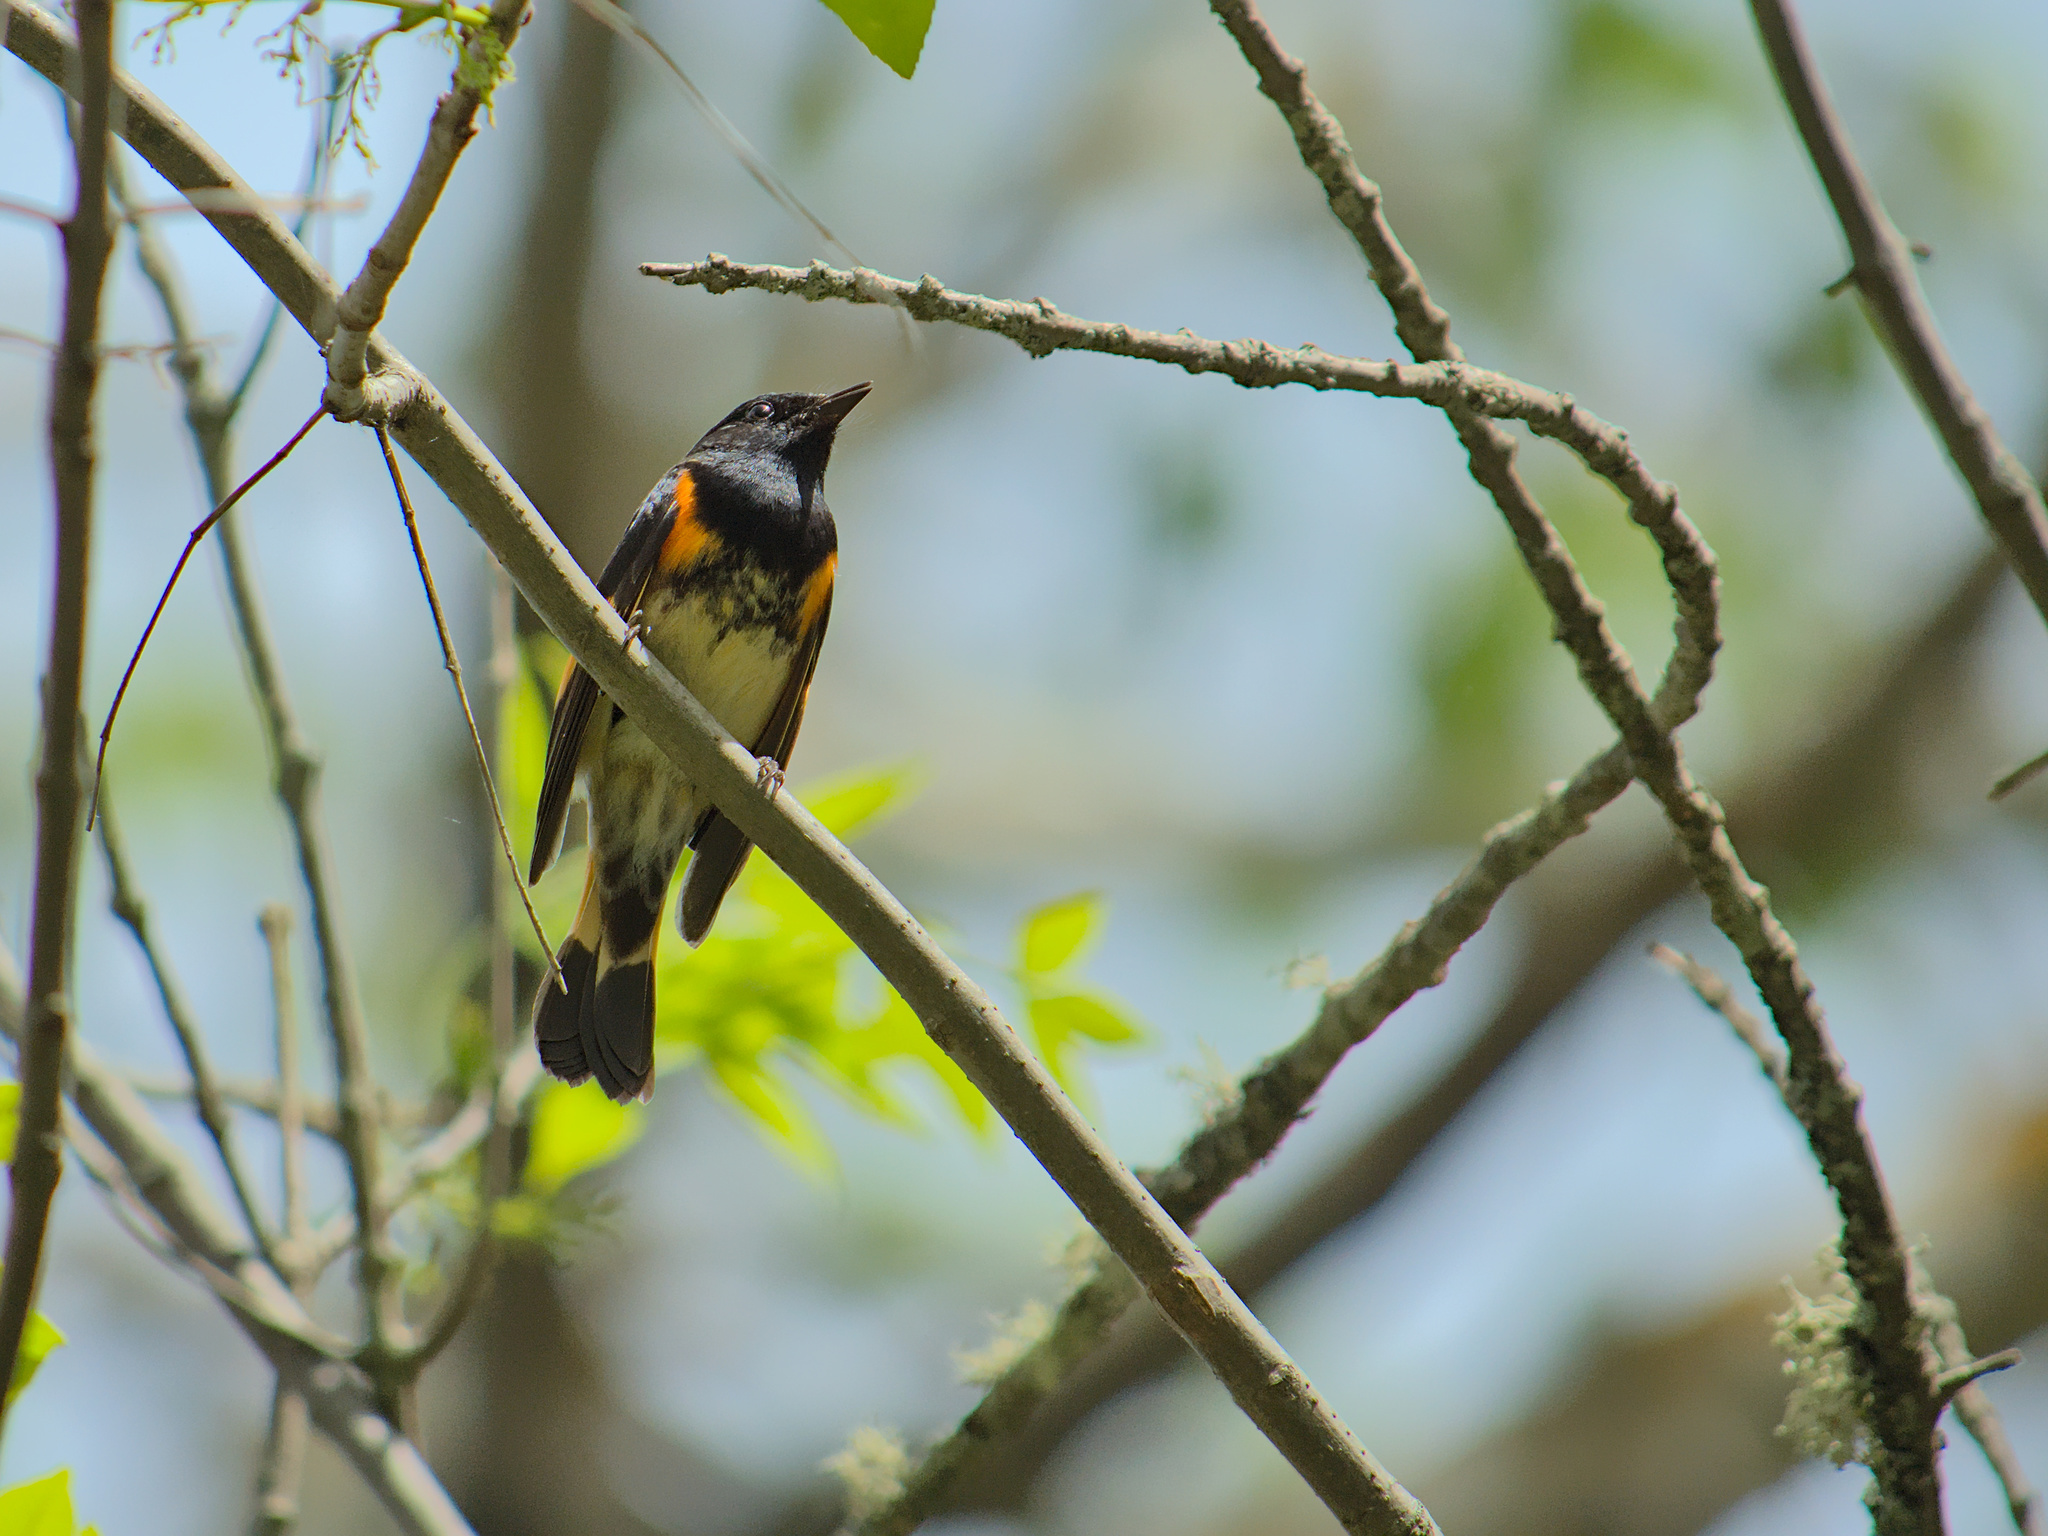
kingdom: Animalia
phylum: Chordata
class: Aves
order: Passeriformes
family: Parulidae
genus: Setophaga
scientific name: Setophaga ruticilla
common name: American redstart
